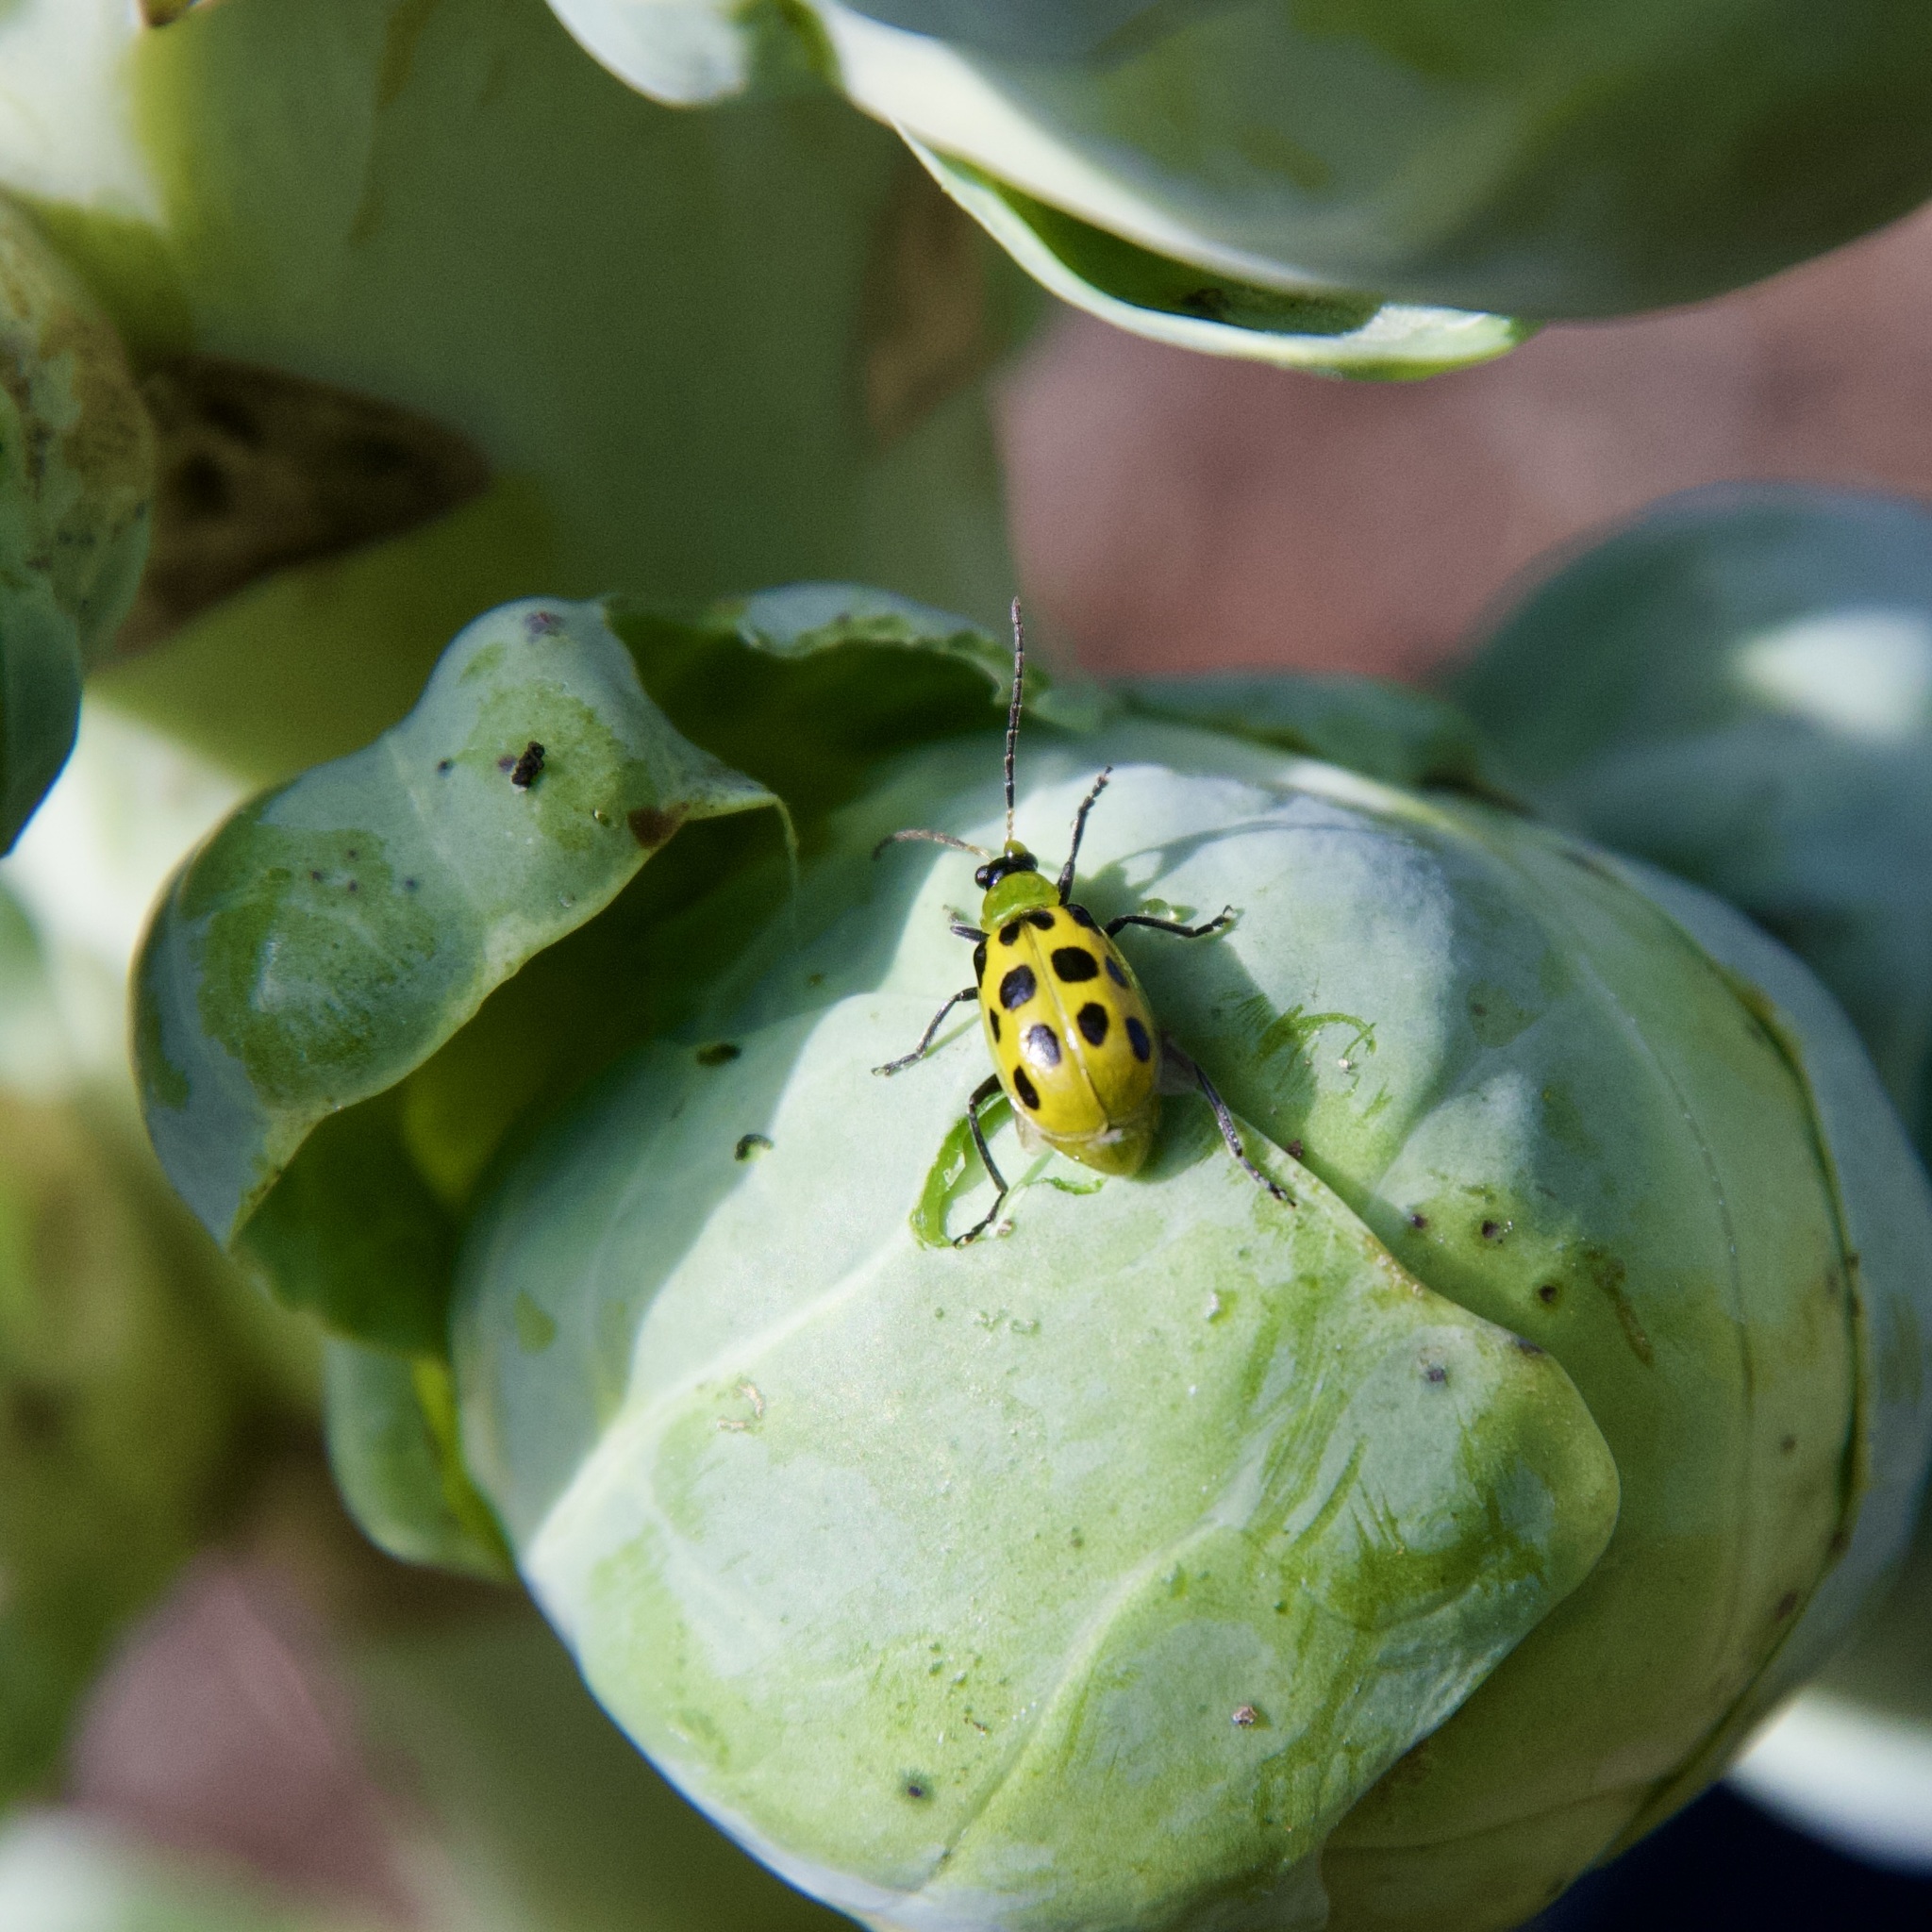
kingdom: Animalia
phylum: Arthropoda
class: Insecta
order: Coleoptera
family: Chrysomelidae
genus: Diabrotica
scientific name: Diabrotica undecimpunctata
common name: Spotted cucumber beetle
